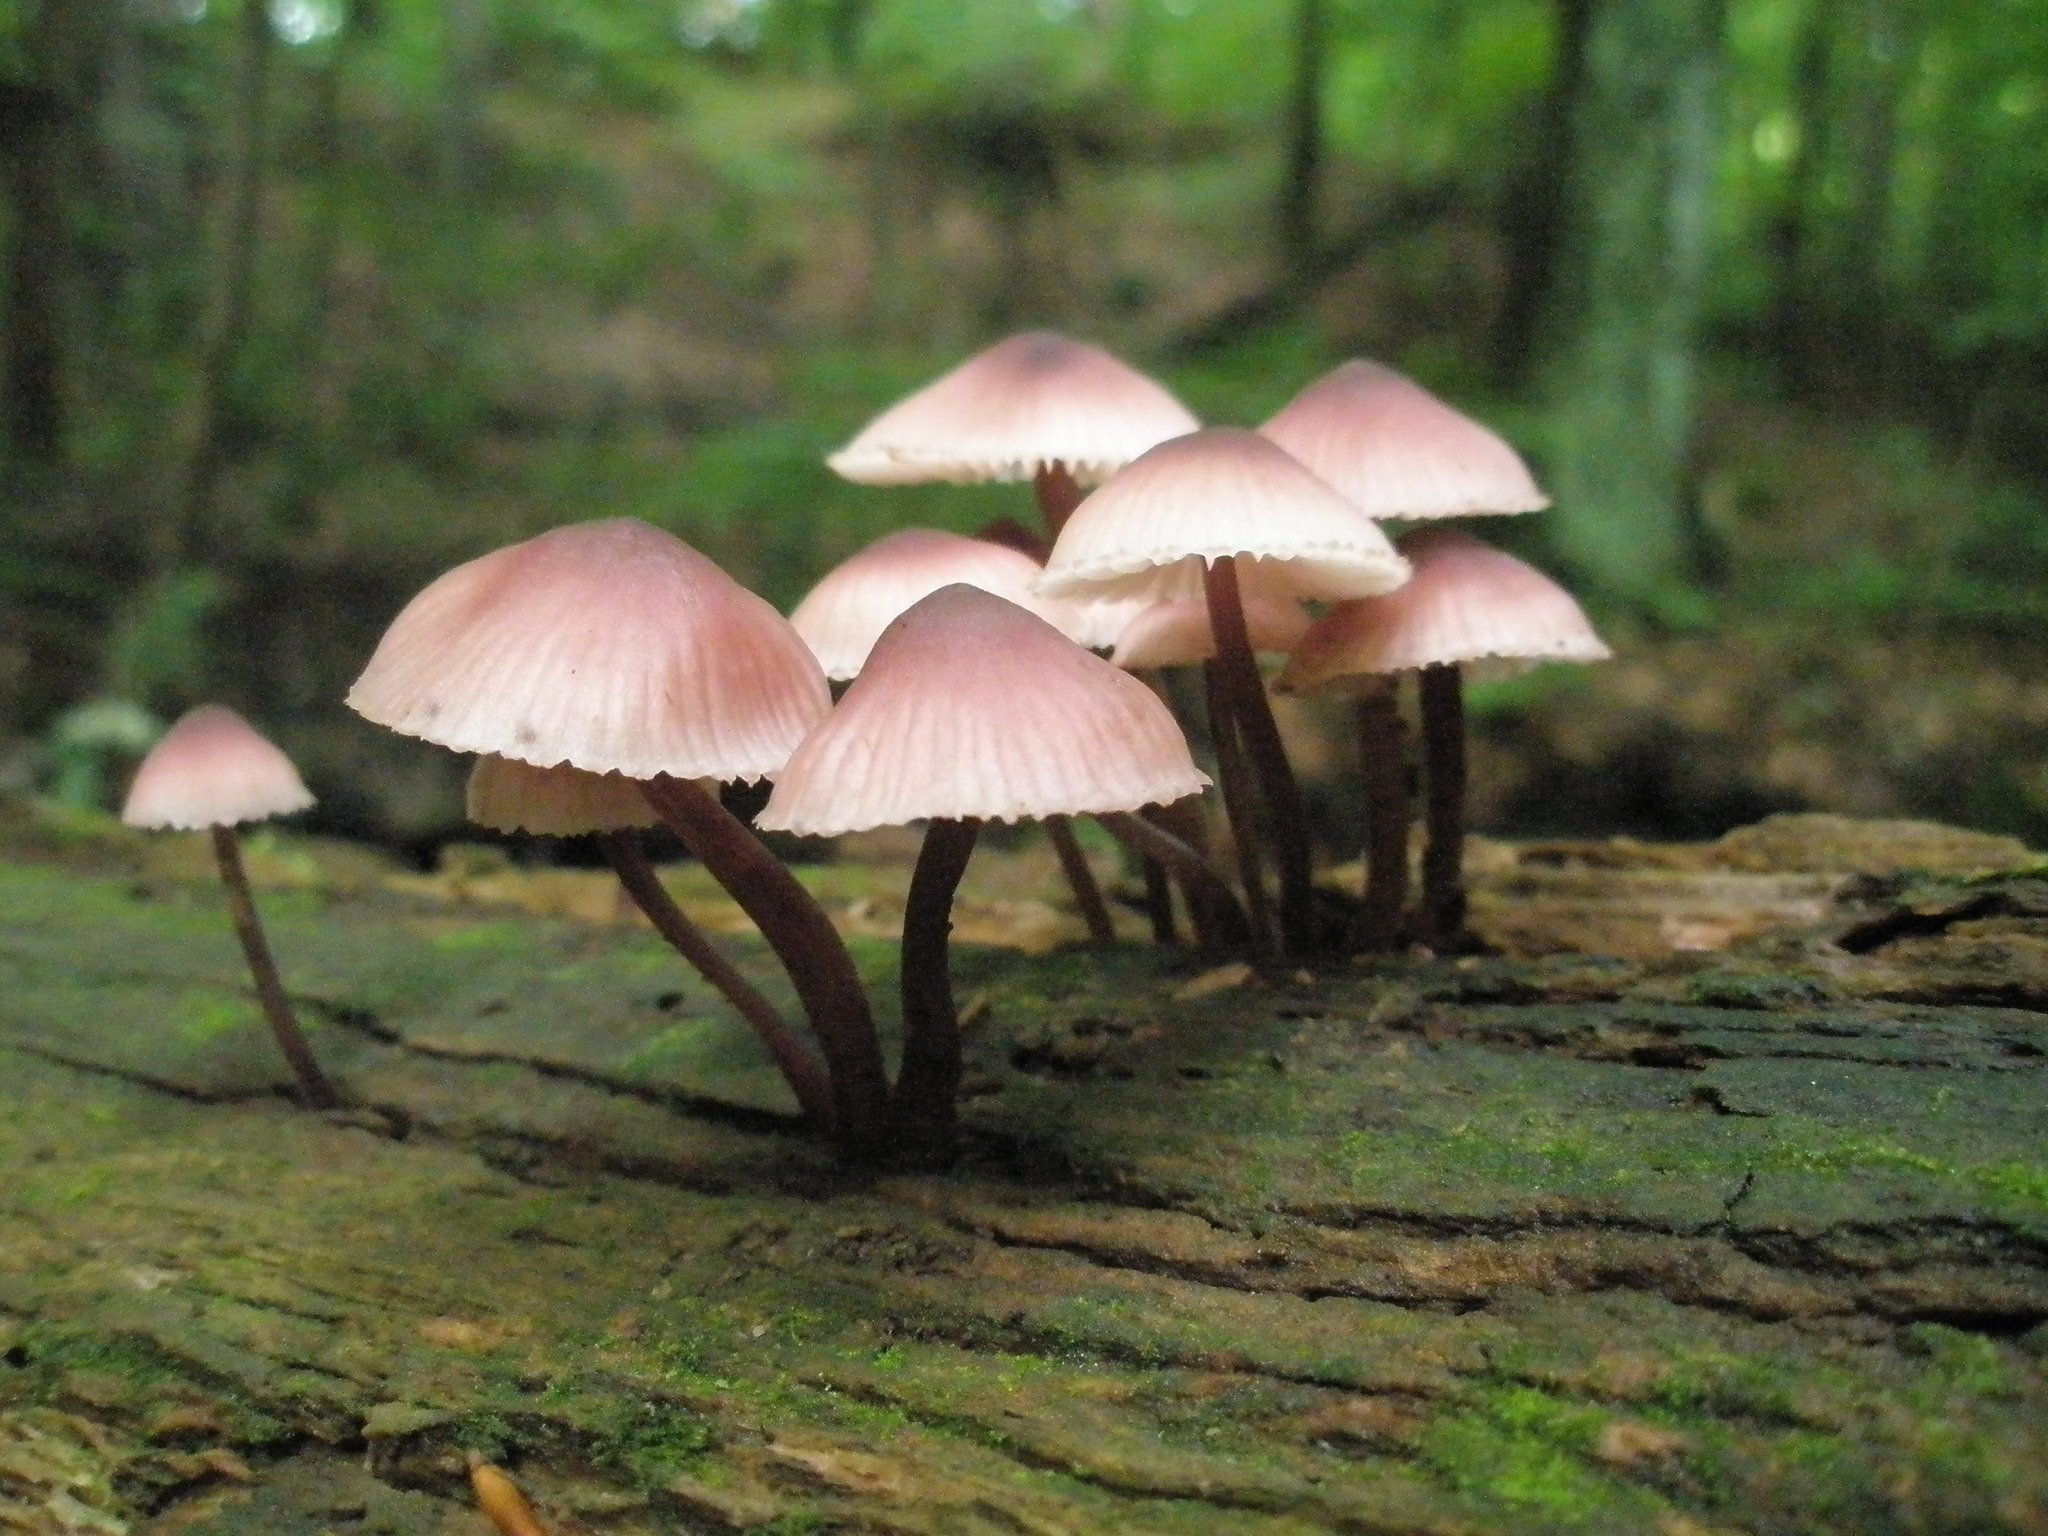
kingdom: Fungi
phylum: Basidiomycota
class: Agaricomycetes
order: Agaricales
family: Mycenaceae
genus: Mycena
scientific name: Mycena haematopus
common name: Burgundydrop bonnet
